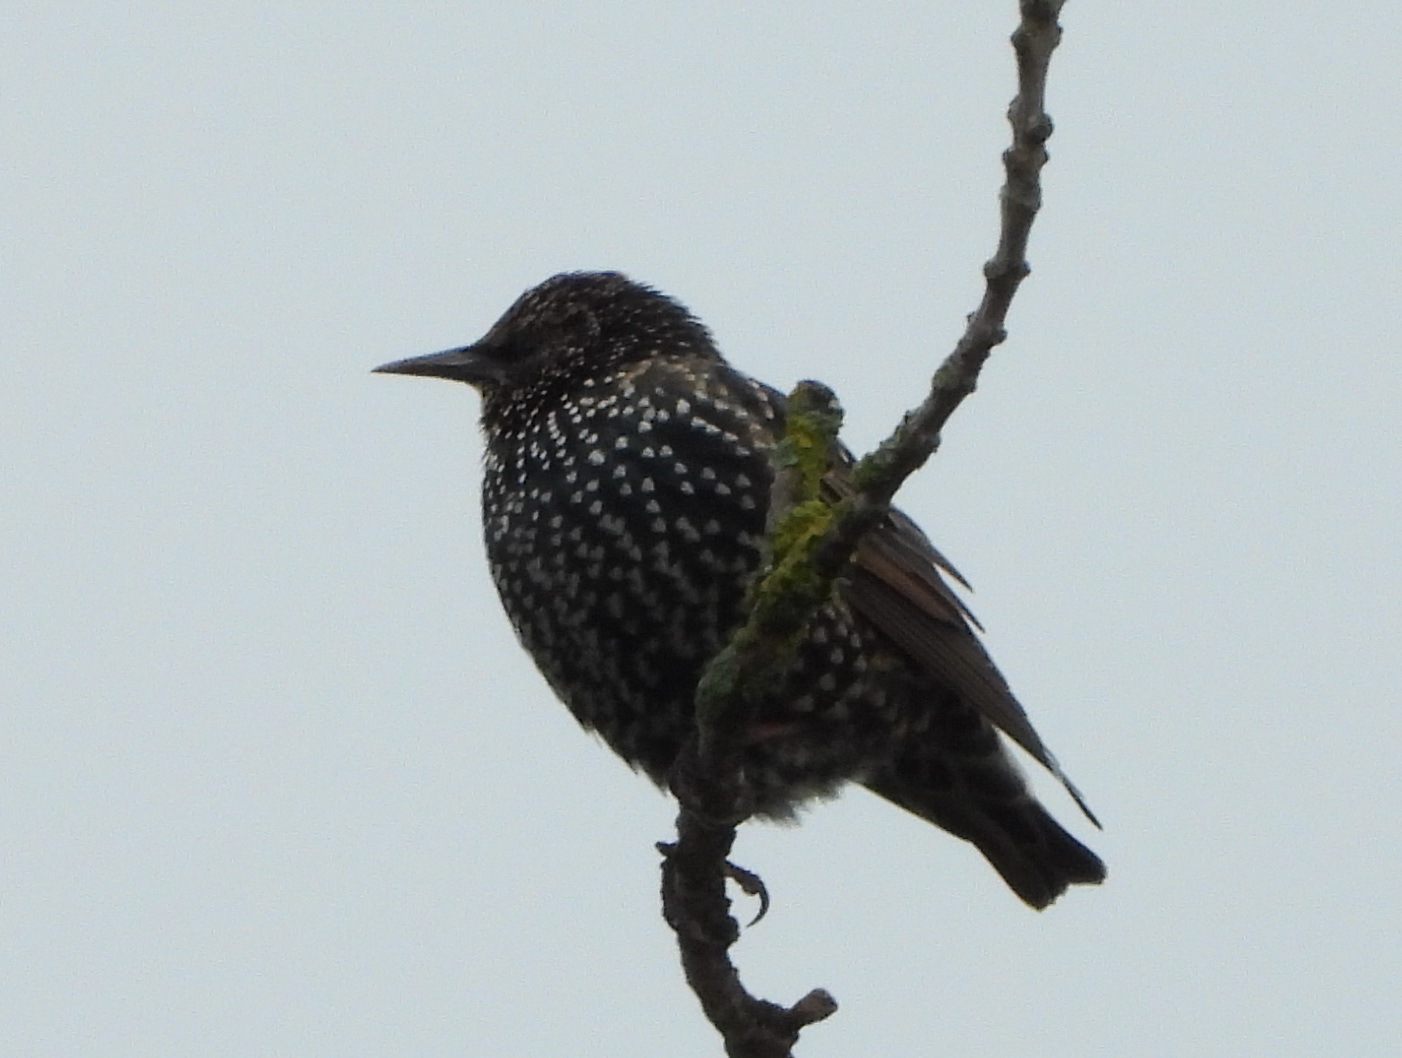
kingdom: Animalia
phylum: Chordata
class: Aves
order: Passeriformes
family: Sturnidae
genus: Sturnus
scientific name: Sturnus vulgaris
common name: Common starling
